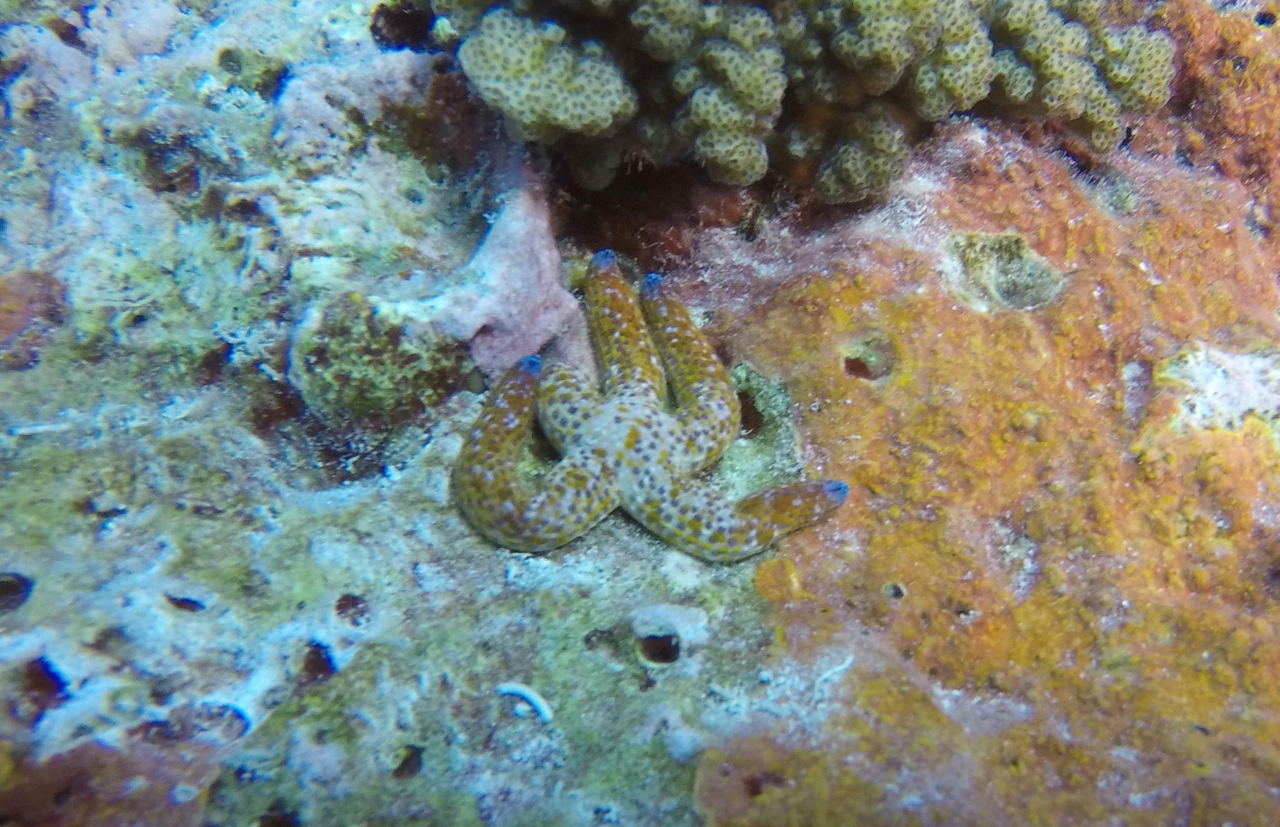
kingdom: Animalia
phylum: Echinodermata
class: Asteroidea
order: Valvatida
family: Ophidiasteridae
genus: Linckia
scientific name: Linckia multifora
